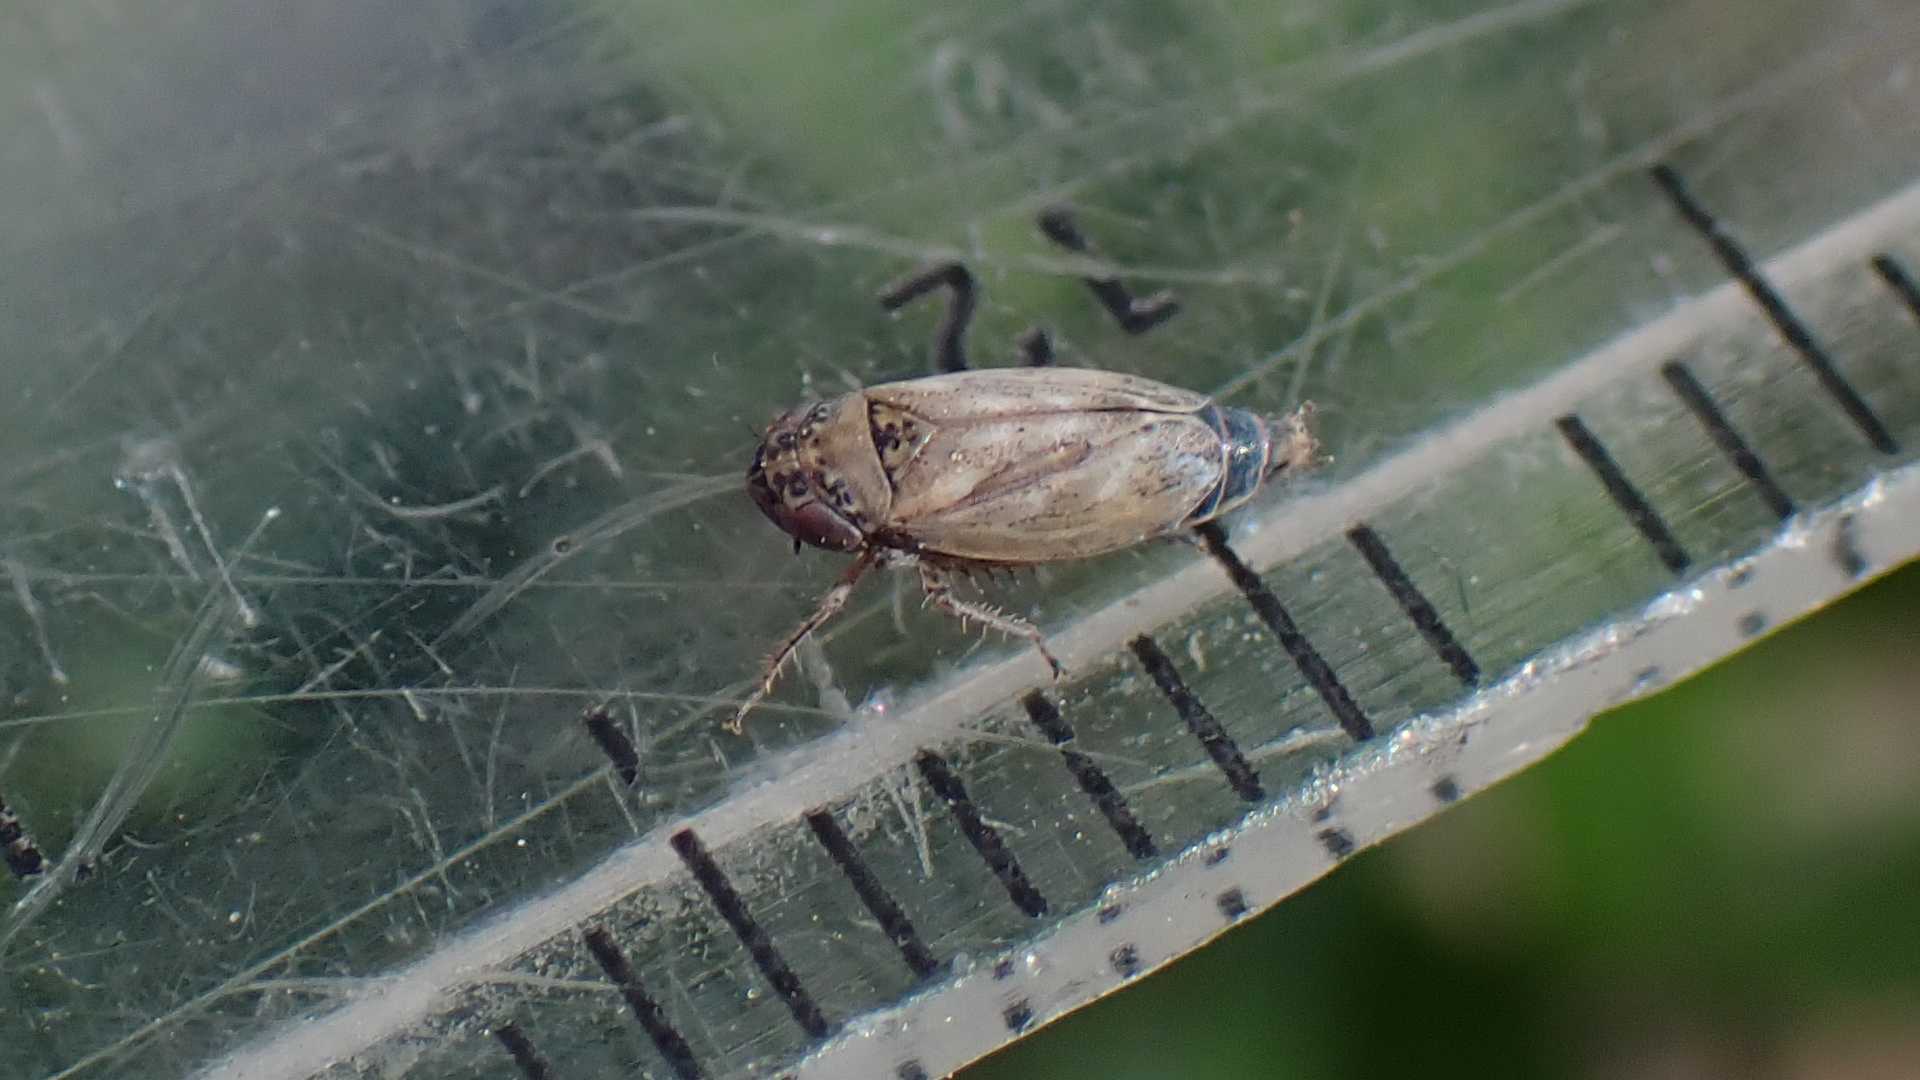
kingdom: Animalia
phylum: Arthropoda
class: Insecta
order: Hemiptera
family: Cicadellidae
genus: Euscelis
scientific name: Euscelis incisa
